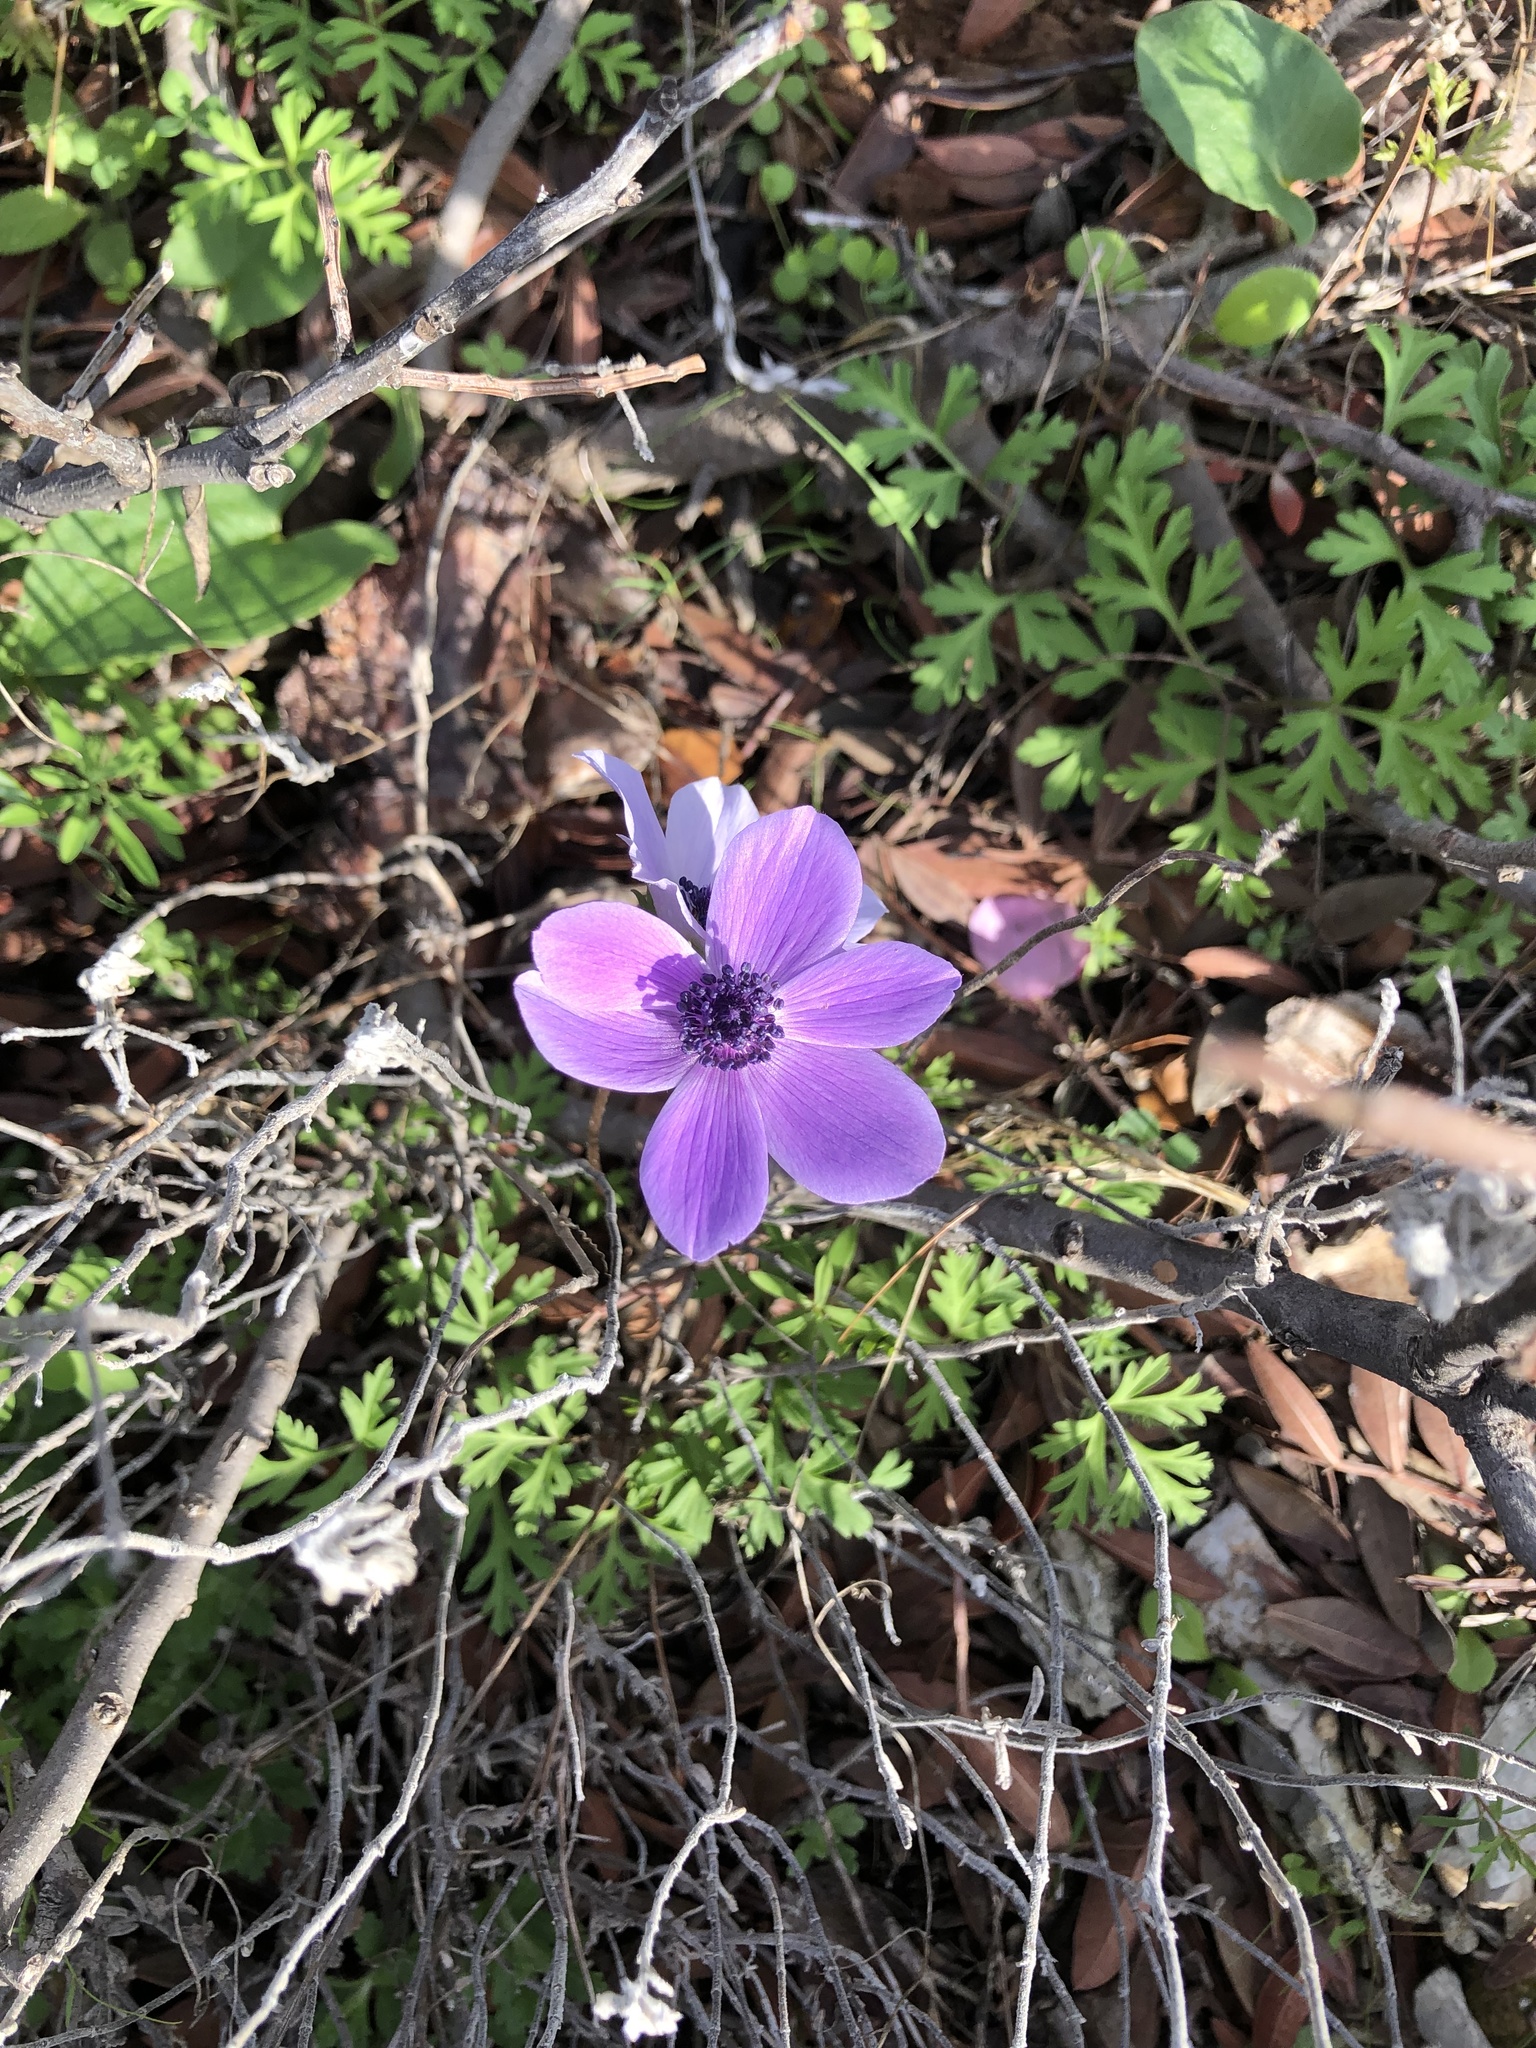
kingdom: Plantae
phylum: Tracheophyta
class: Magnoliopsida
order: Ranunculales
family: Ranunculaceae
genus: Anemone
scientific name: Anemone coronaria
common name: Poppy anemone
